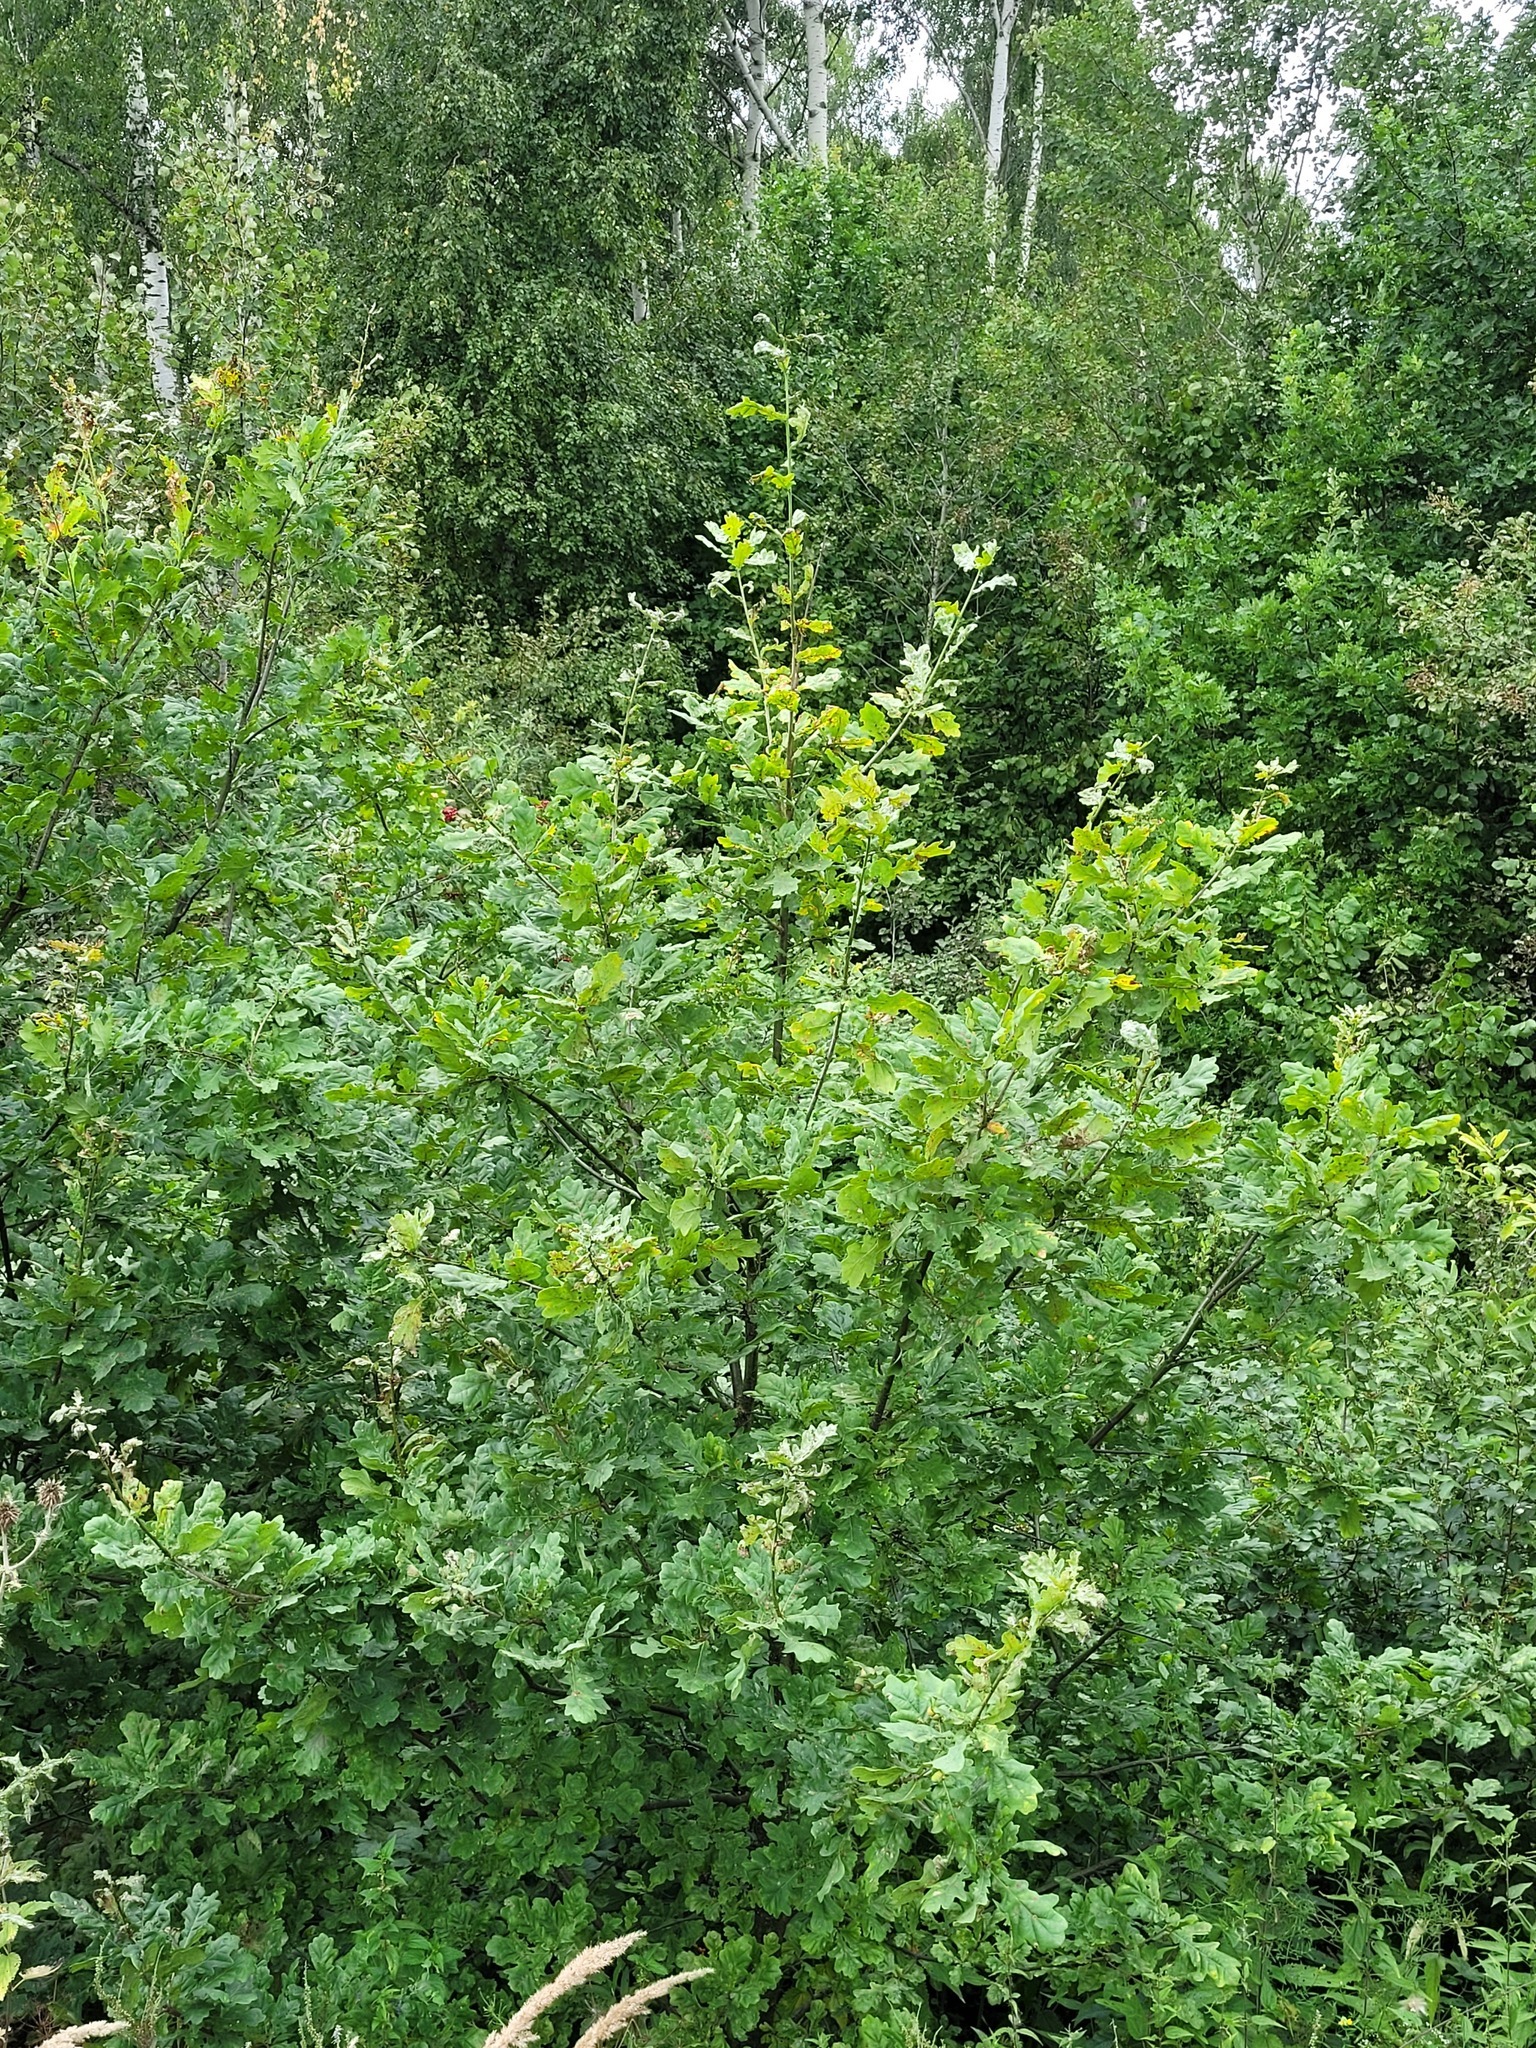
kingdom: Plantae
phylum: Tracheophyta
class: Magnoliopsida
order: Fagales
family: Fagaceae
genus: Quercus
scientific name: Quercus robur
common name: Pedunculate oak
